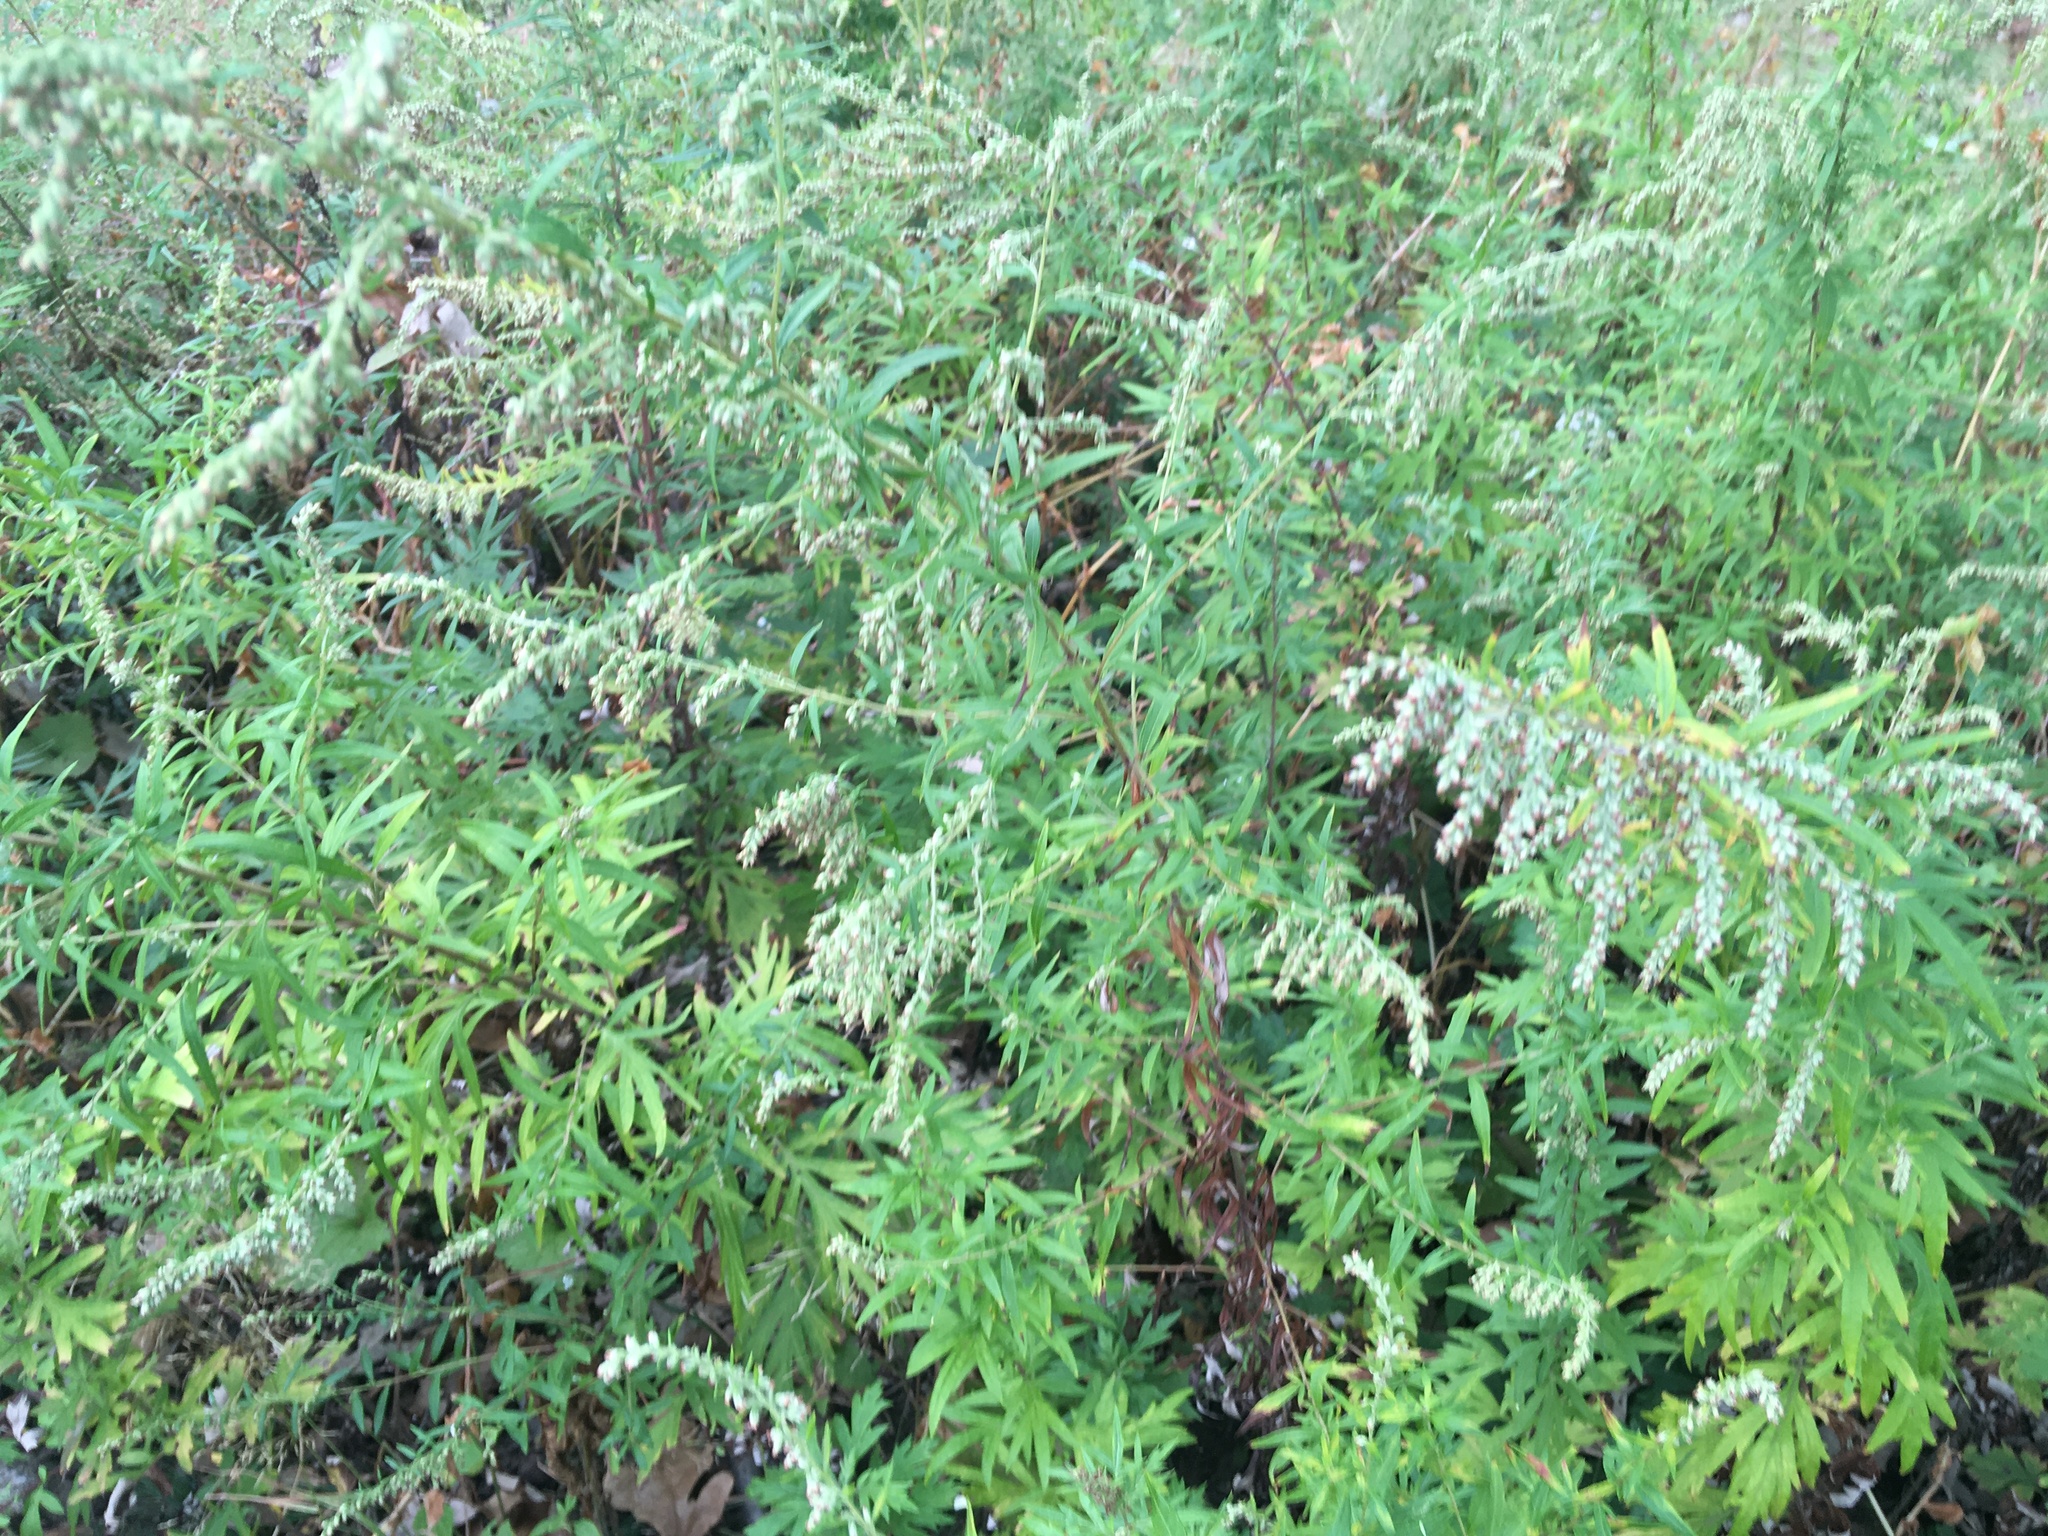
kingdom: Plantae
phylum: Tracheophyta
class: Magnoliopsida
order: Asterales
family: Asteraceae
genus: Artemisia
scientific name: Artemisia vulgaris
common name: Mugwort
